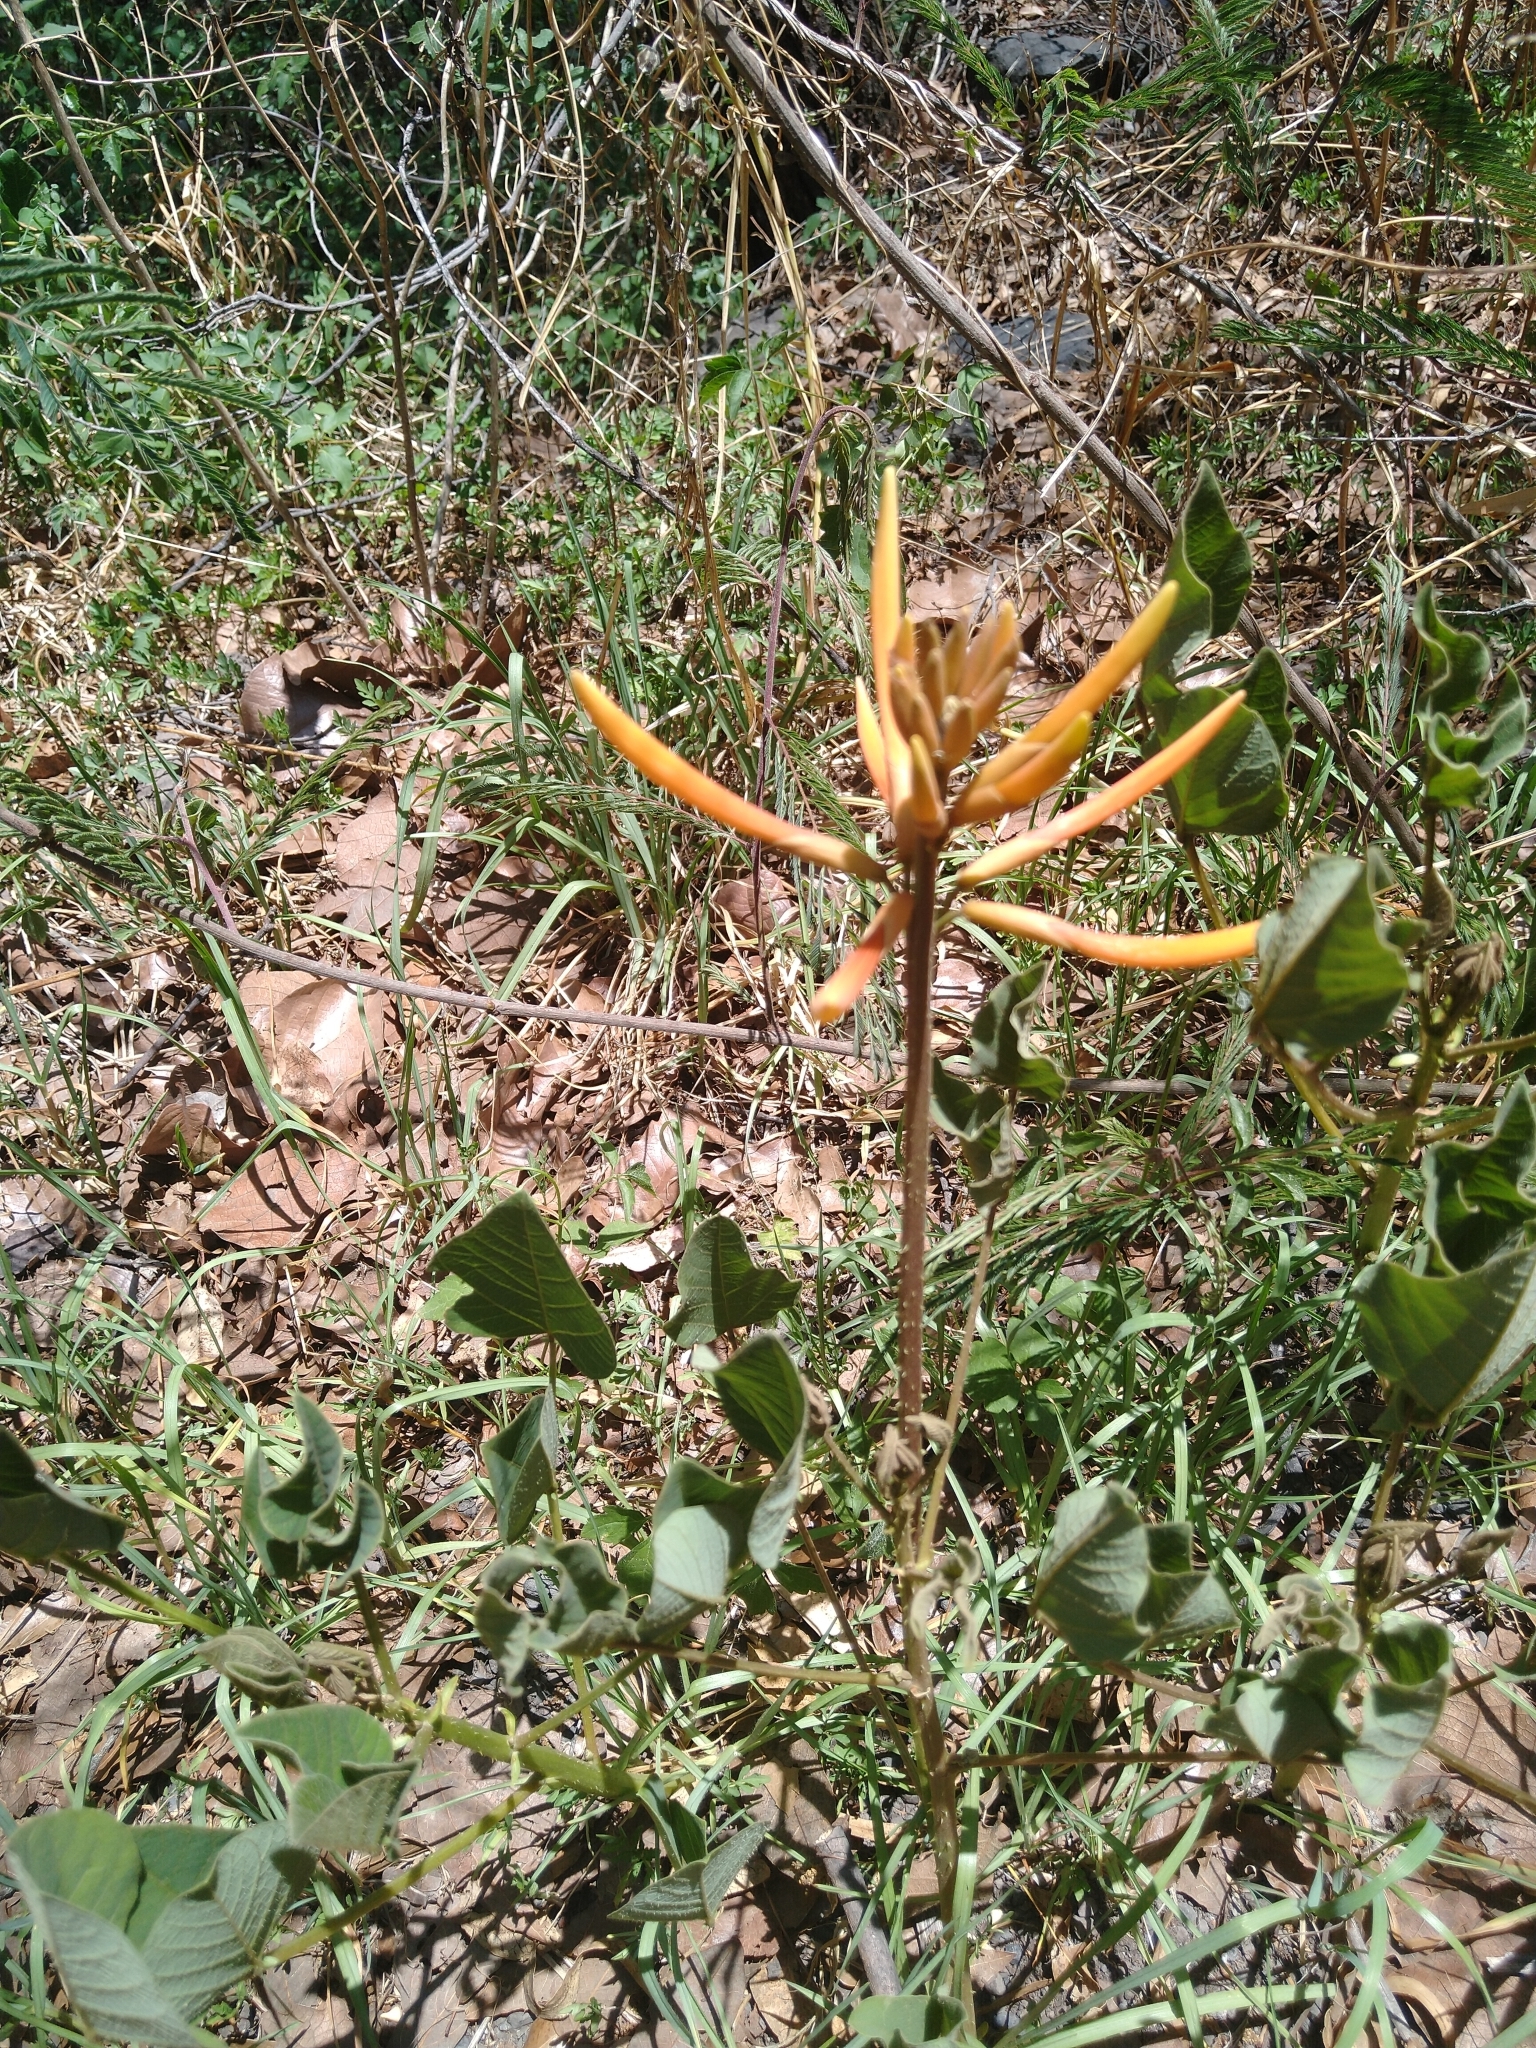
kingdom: Plantae
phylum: Tracheophyta
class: Magnoliopsida
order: Fabales
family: Fabaceae
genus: Erythrina
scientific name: Erythrina leptorhiza
